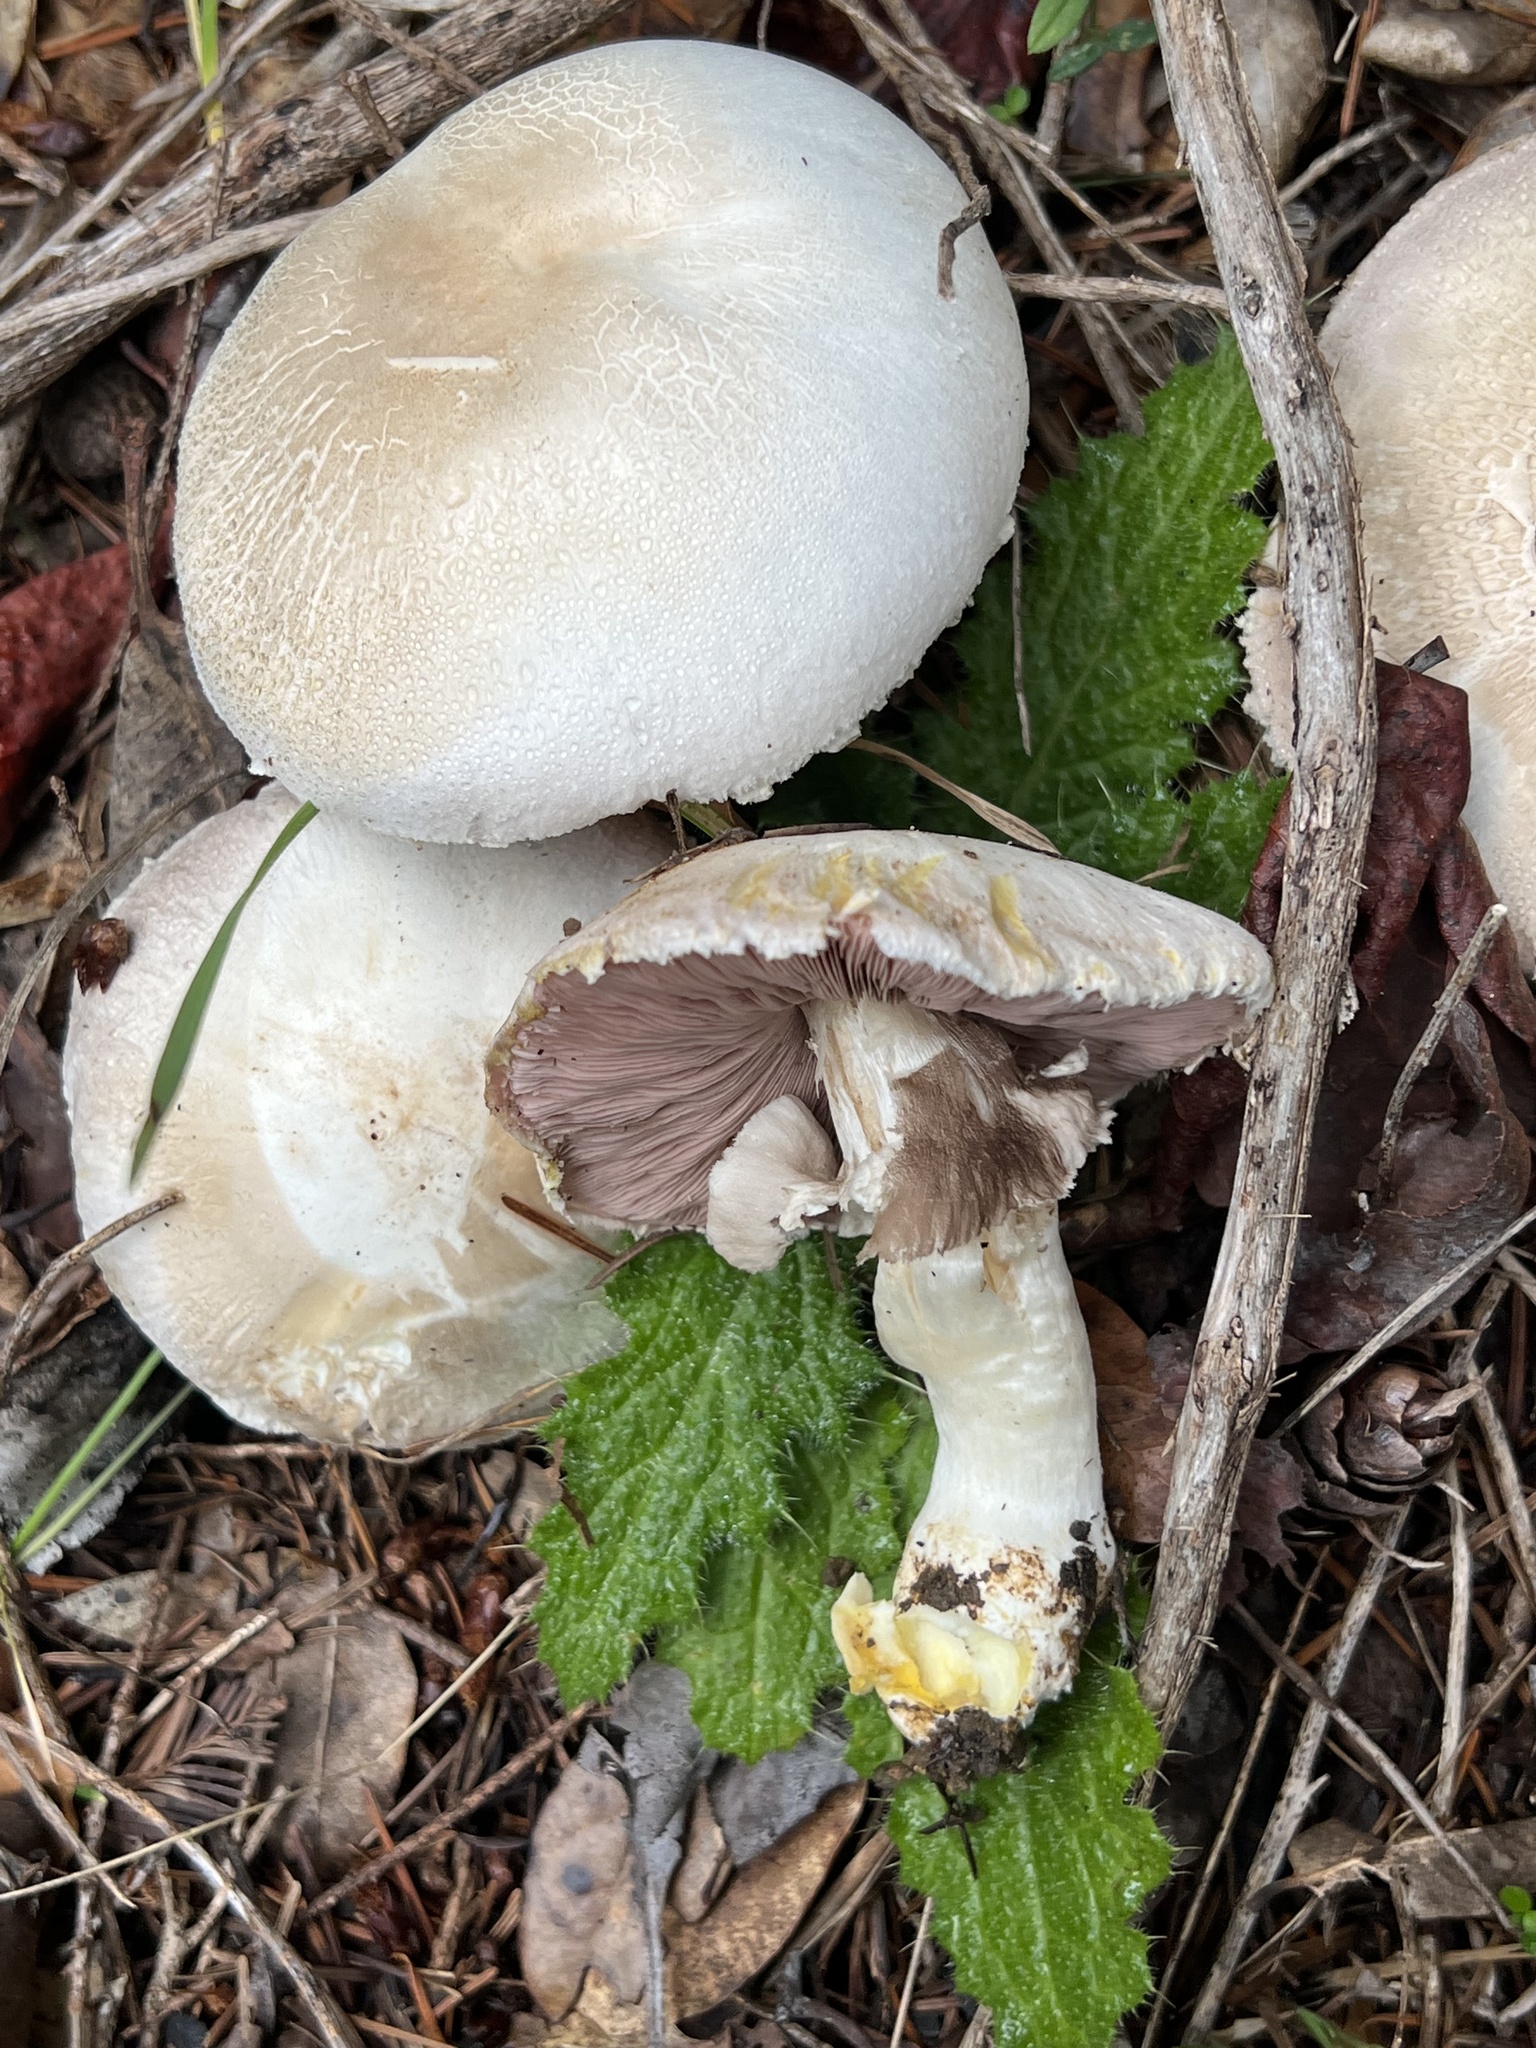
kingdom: Fungi
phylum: Basidiomycota
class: Agaricomycetes
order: Agaricales
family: Agaricaceae
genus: Agaricus
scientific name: Agaricus xanthodermus
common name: Yellow stainer
